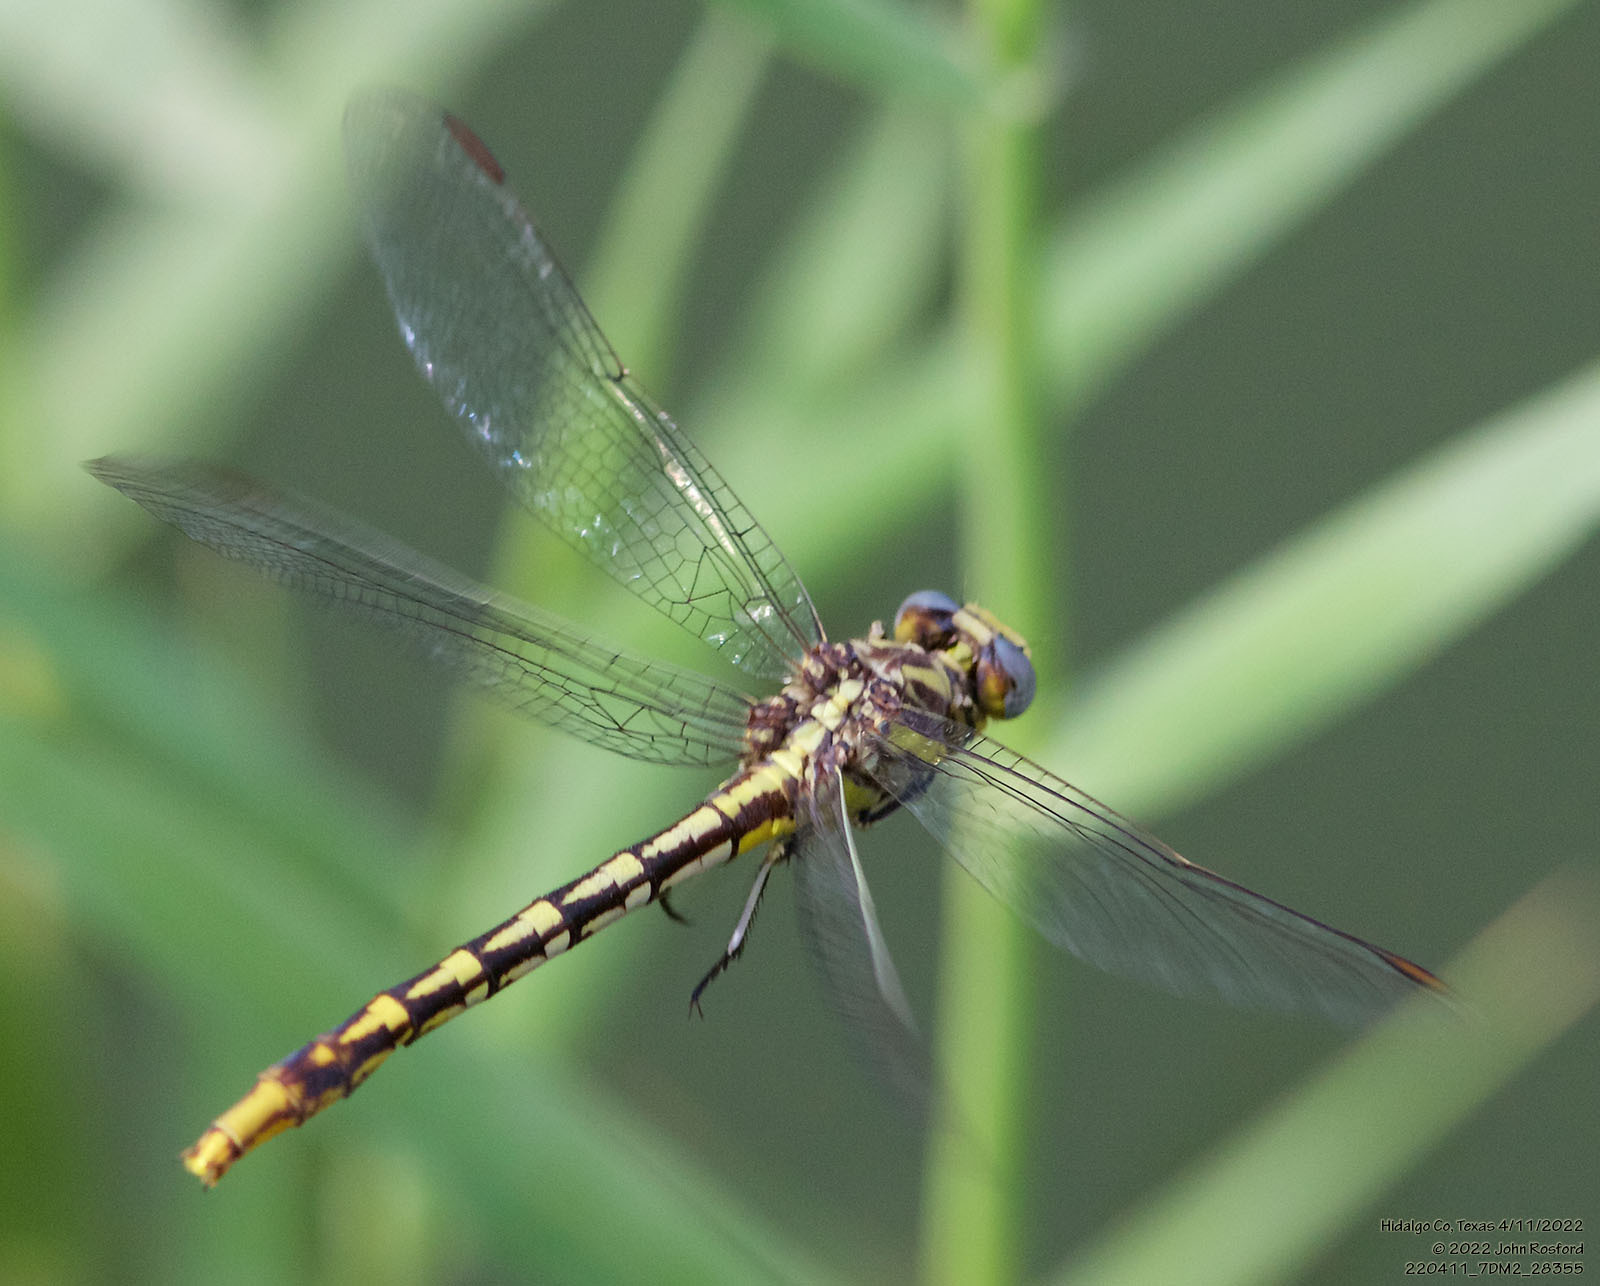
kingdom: Animalia
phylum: Arthropoda
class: Insecta
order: Odonata
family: Gomphidae
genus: Phanogomphus
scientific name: Phanogomphus militaris
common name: Sulphur-tipped clubtail
